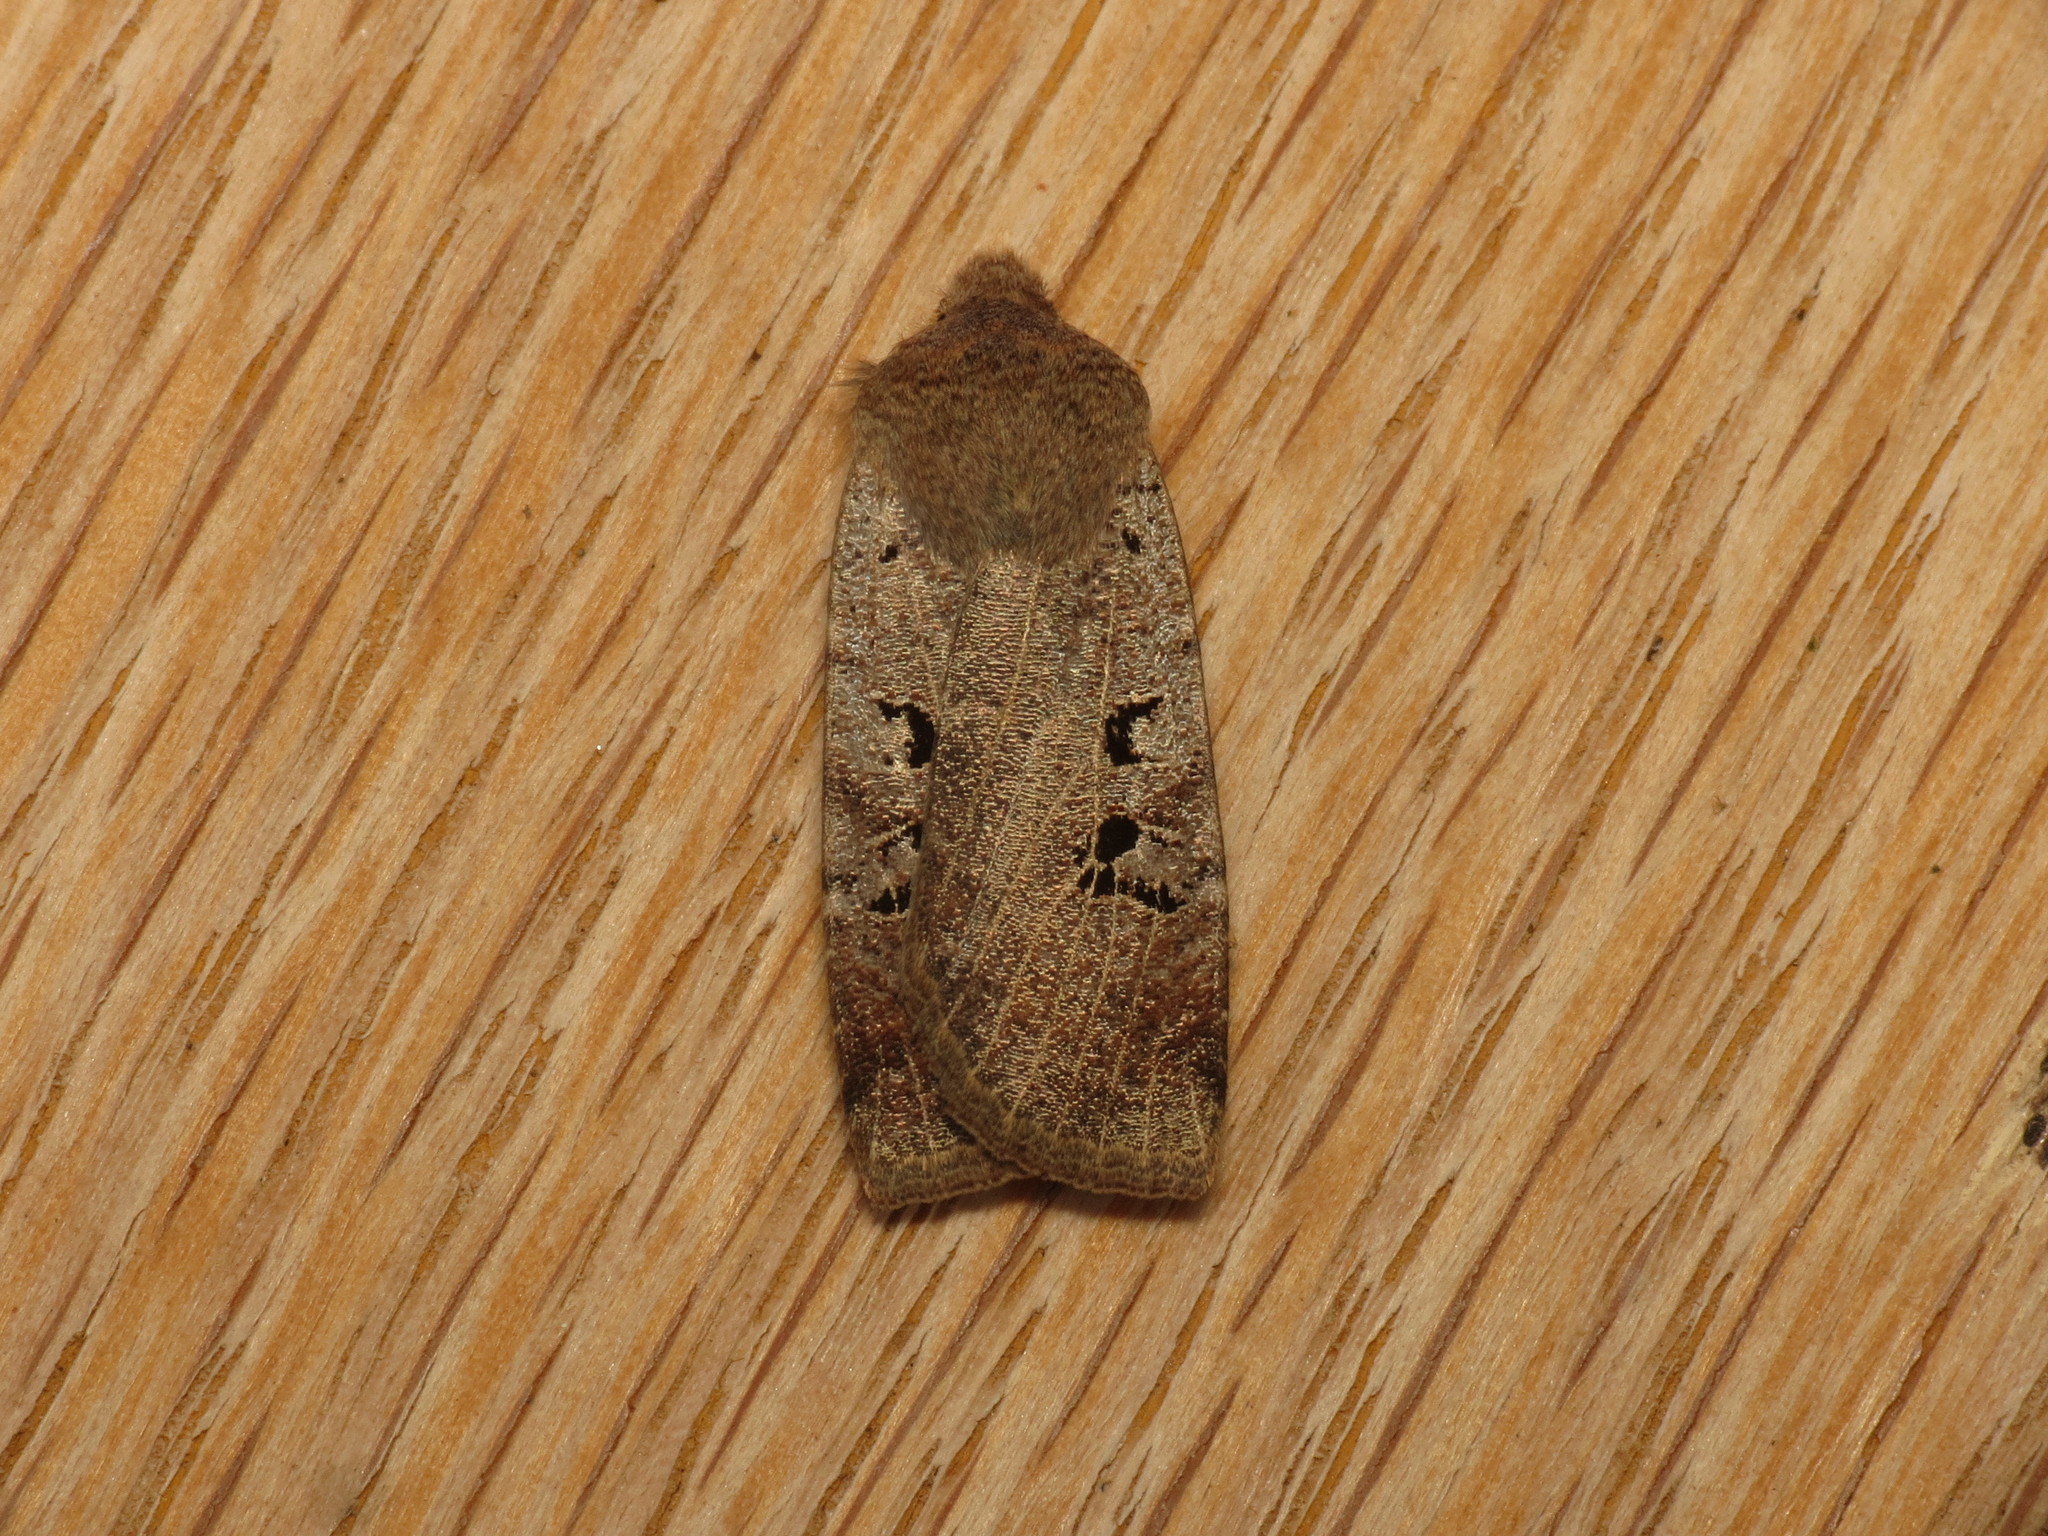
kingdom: Animalia
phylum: Arthropoda
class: Insecta
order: Lepidoptera
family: Noctuidae
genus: Conistra
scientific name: Conistra rubiginosa
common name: Black-spotted chestnut
